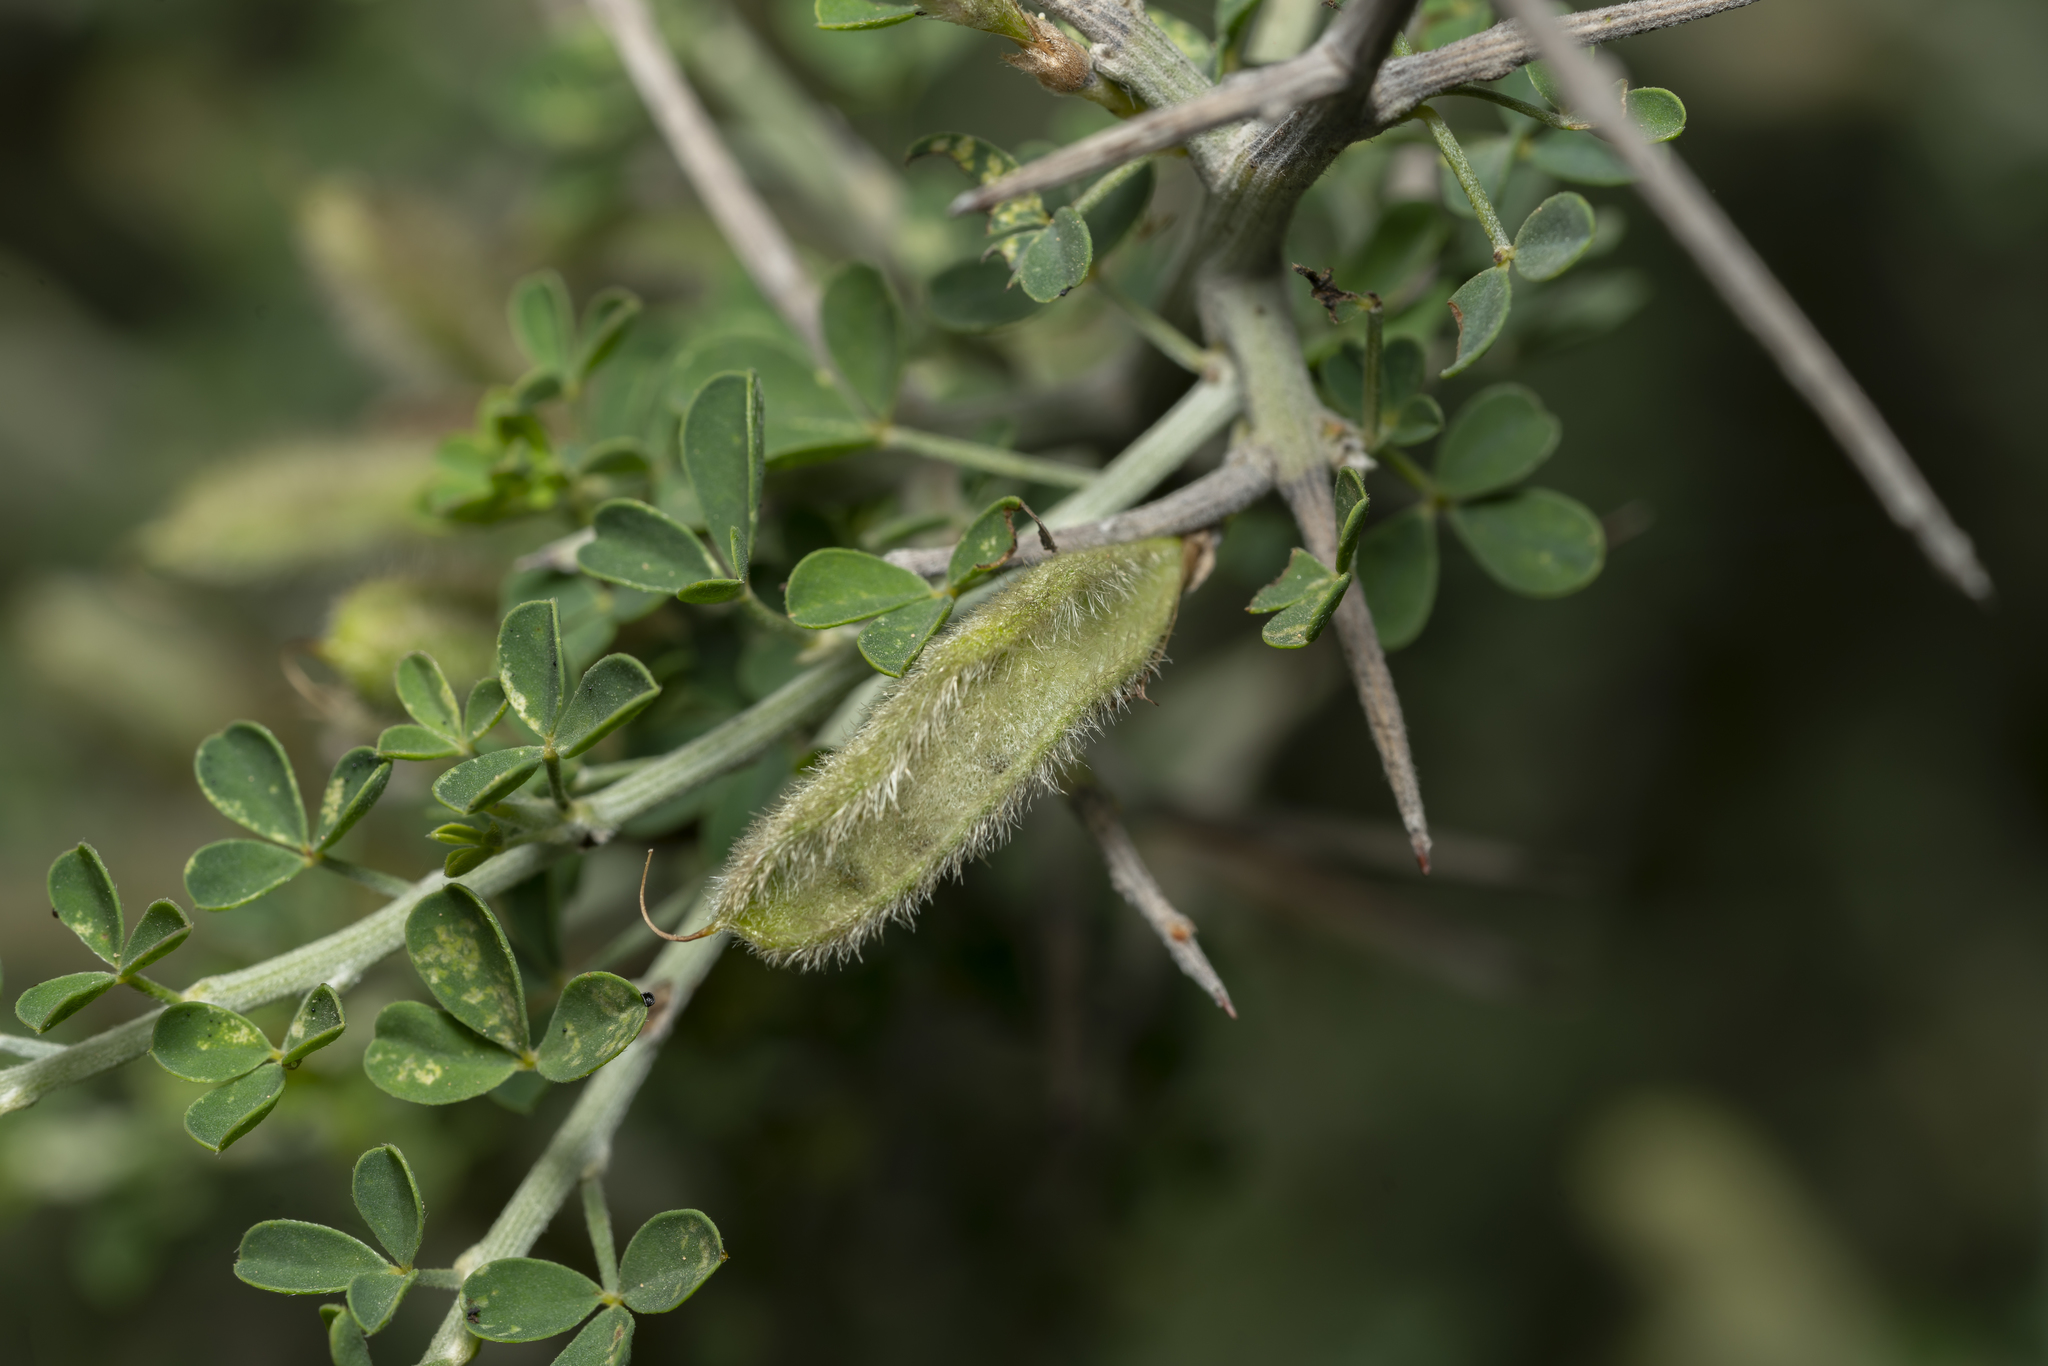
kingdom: Plantae
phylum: Tracheophyta
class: Magnoliopsida
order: Fabales
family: Fabaceae
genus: Calicotome
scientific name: Calicotome villosa
